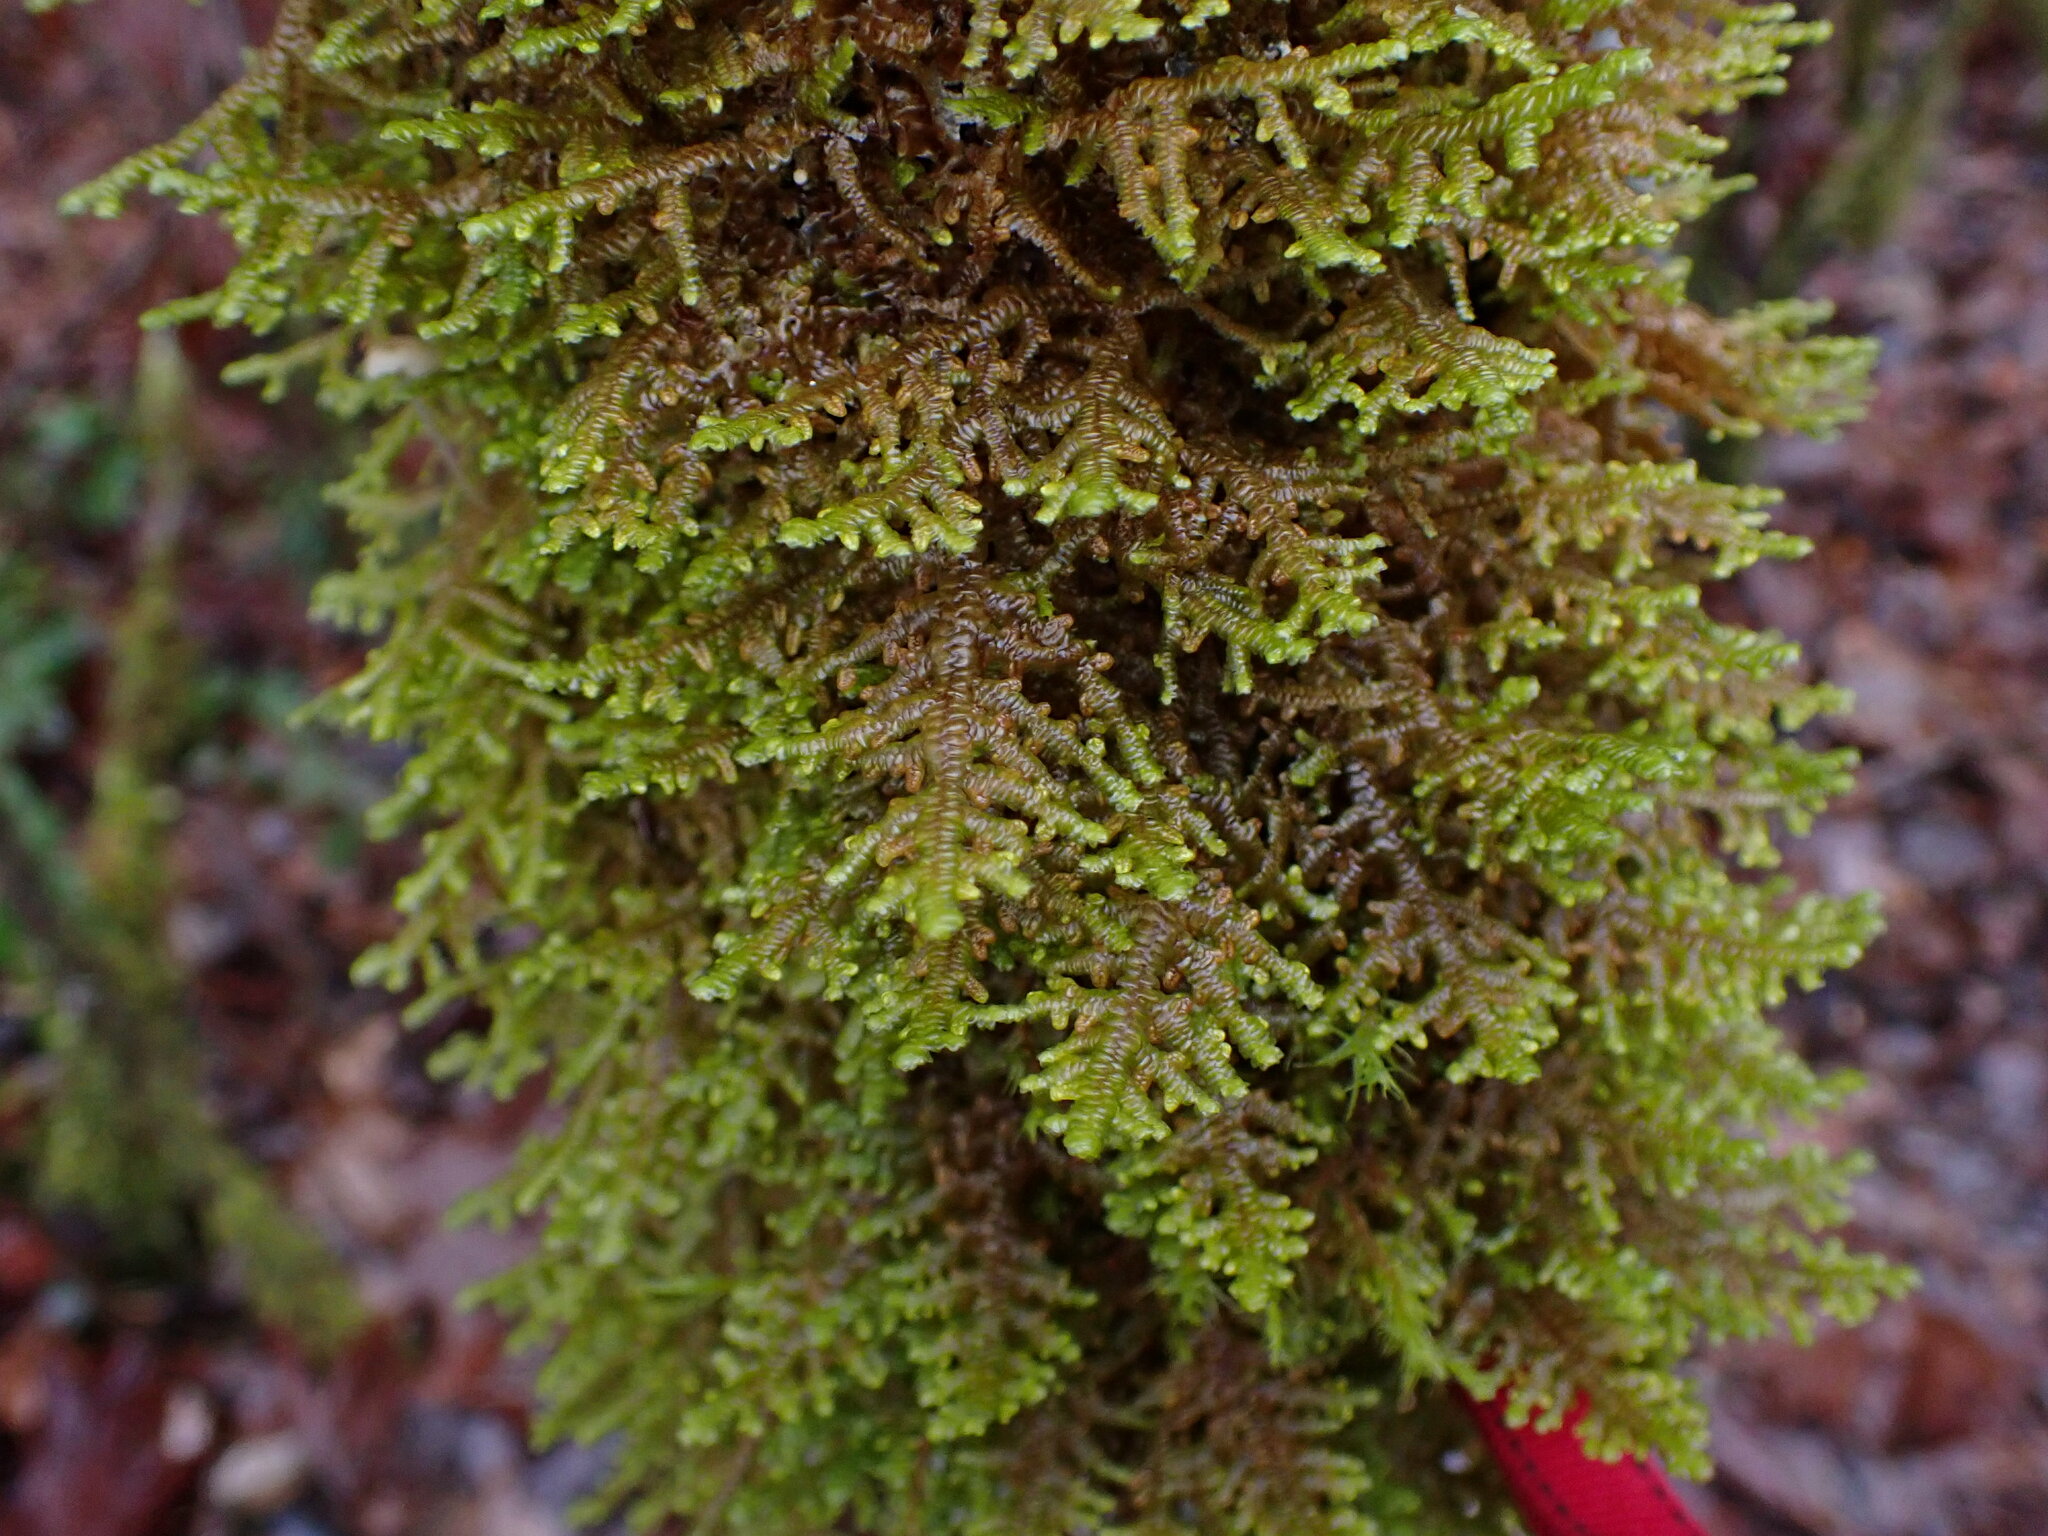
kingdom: Plantae
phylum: Marchantiophyta
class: Jungermanniopsida
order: Porellales
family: Porellaceae
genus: Porella
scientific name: Porella navicularis
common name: Tree ruffle liverwort
